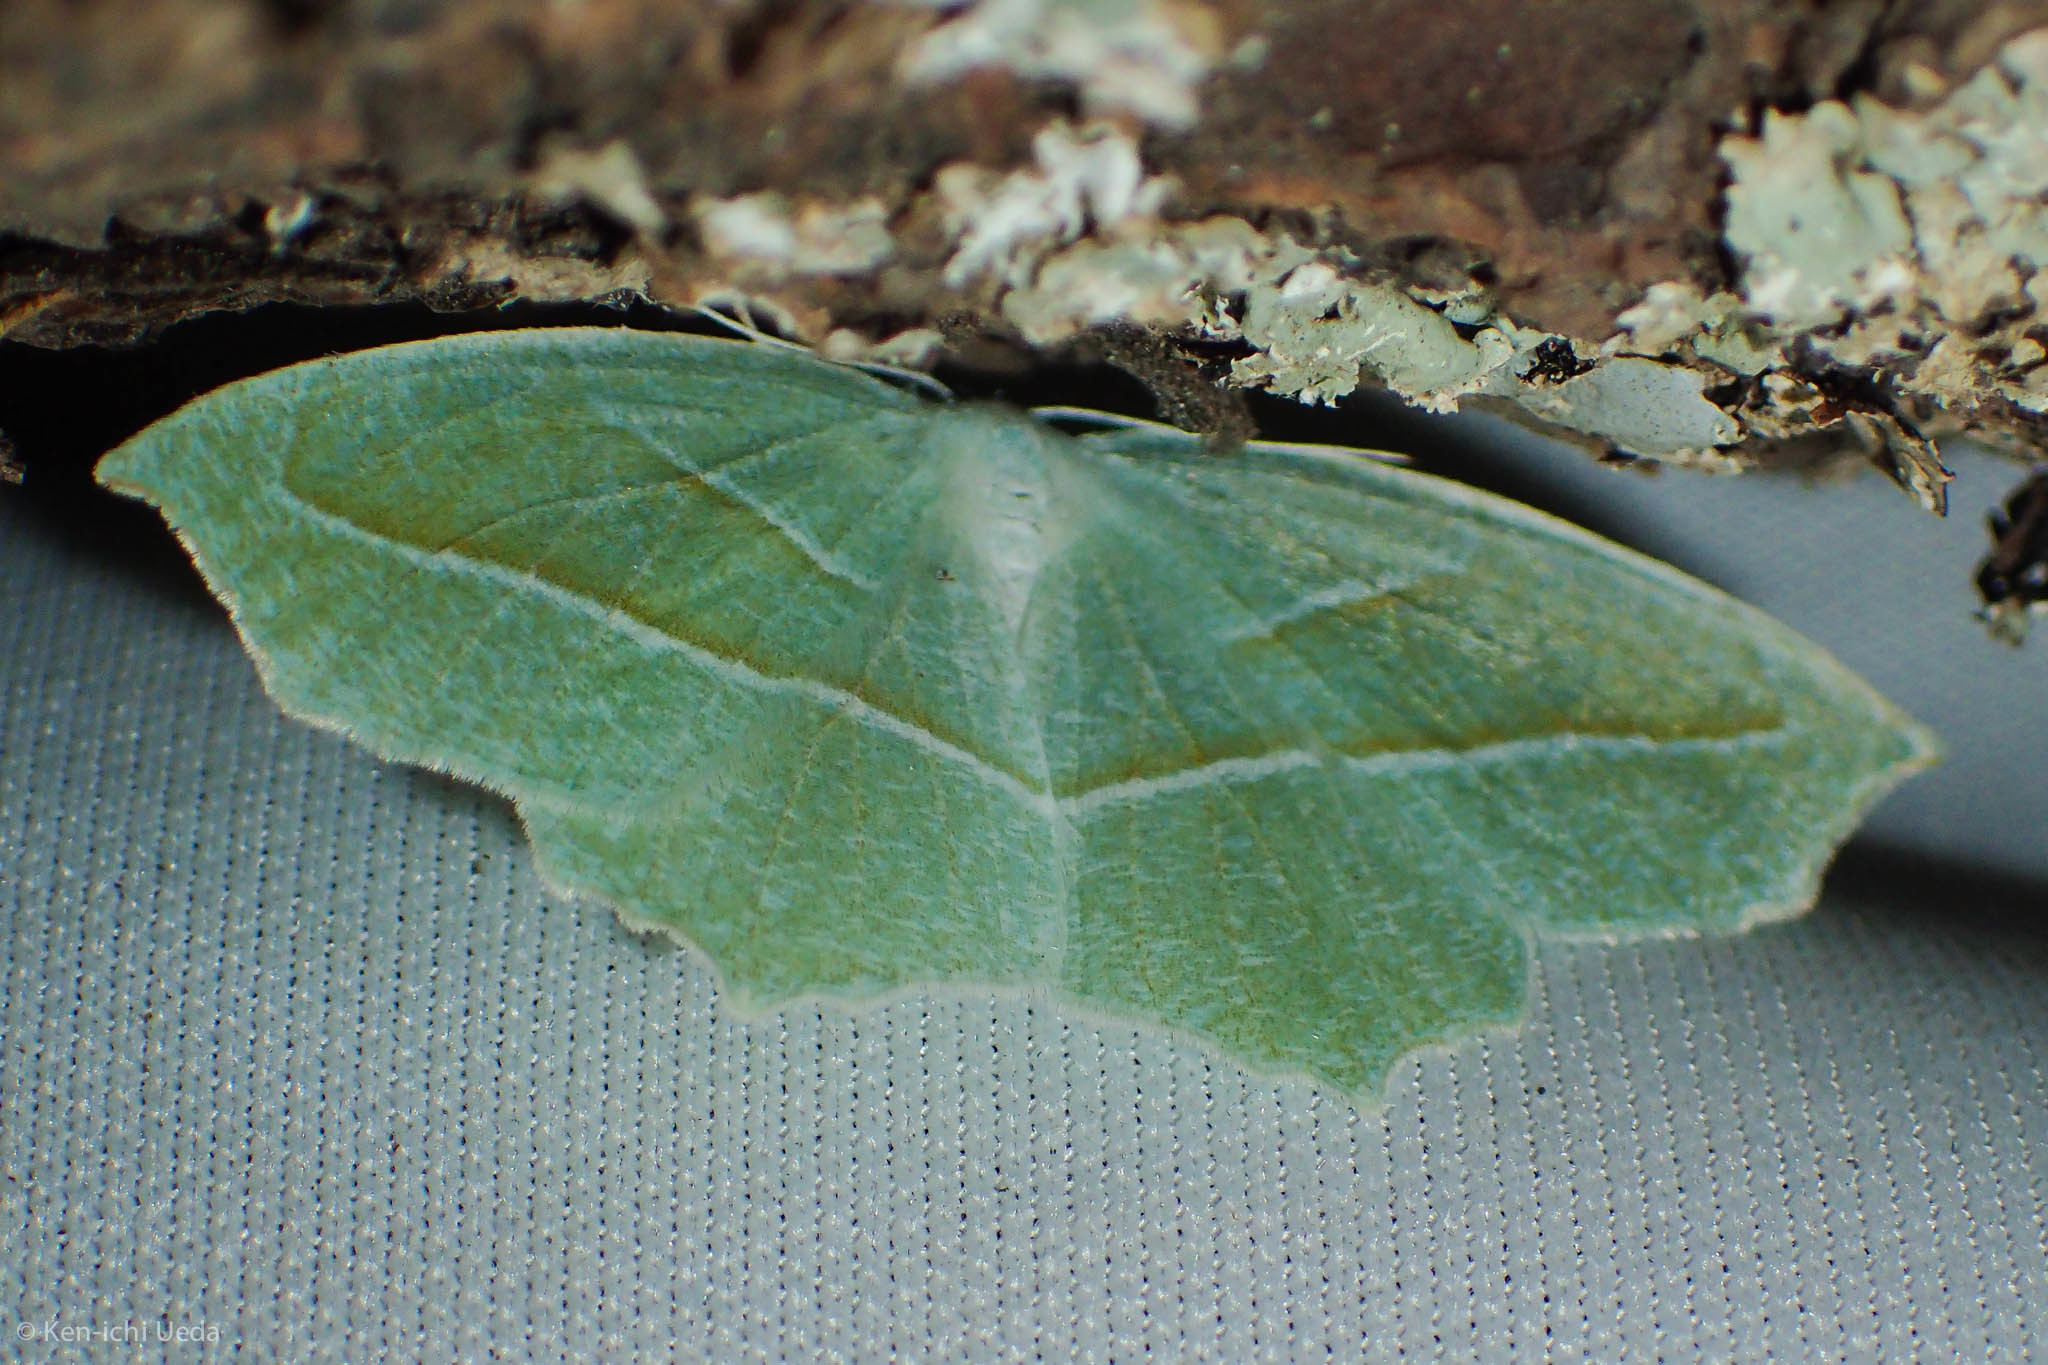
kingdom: Animalia
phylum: Arthropoda
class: Insecta
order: Lepidoptera
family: Geometridae
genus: Campaea
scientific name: Campaea perlata
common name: Fringed looper
